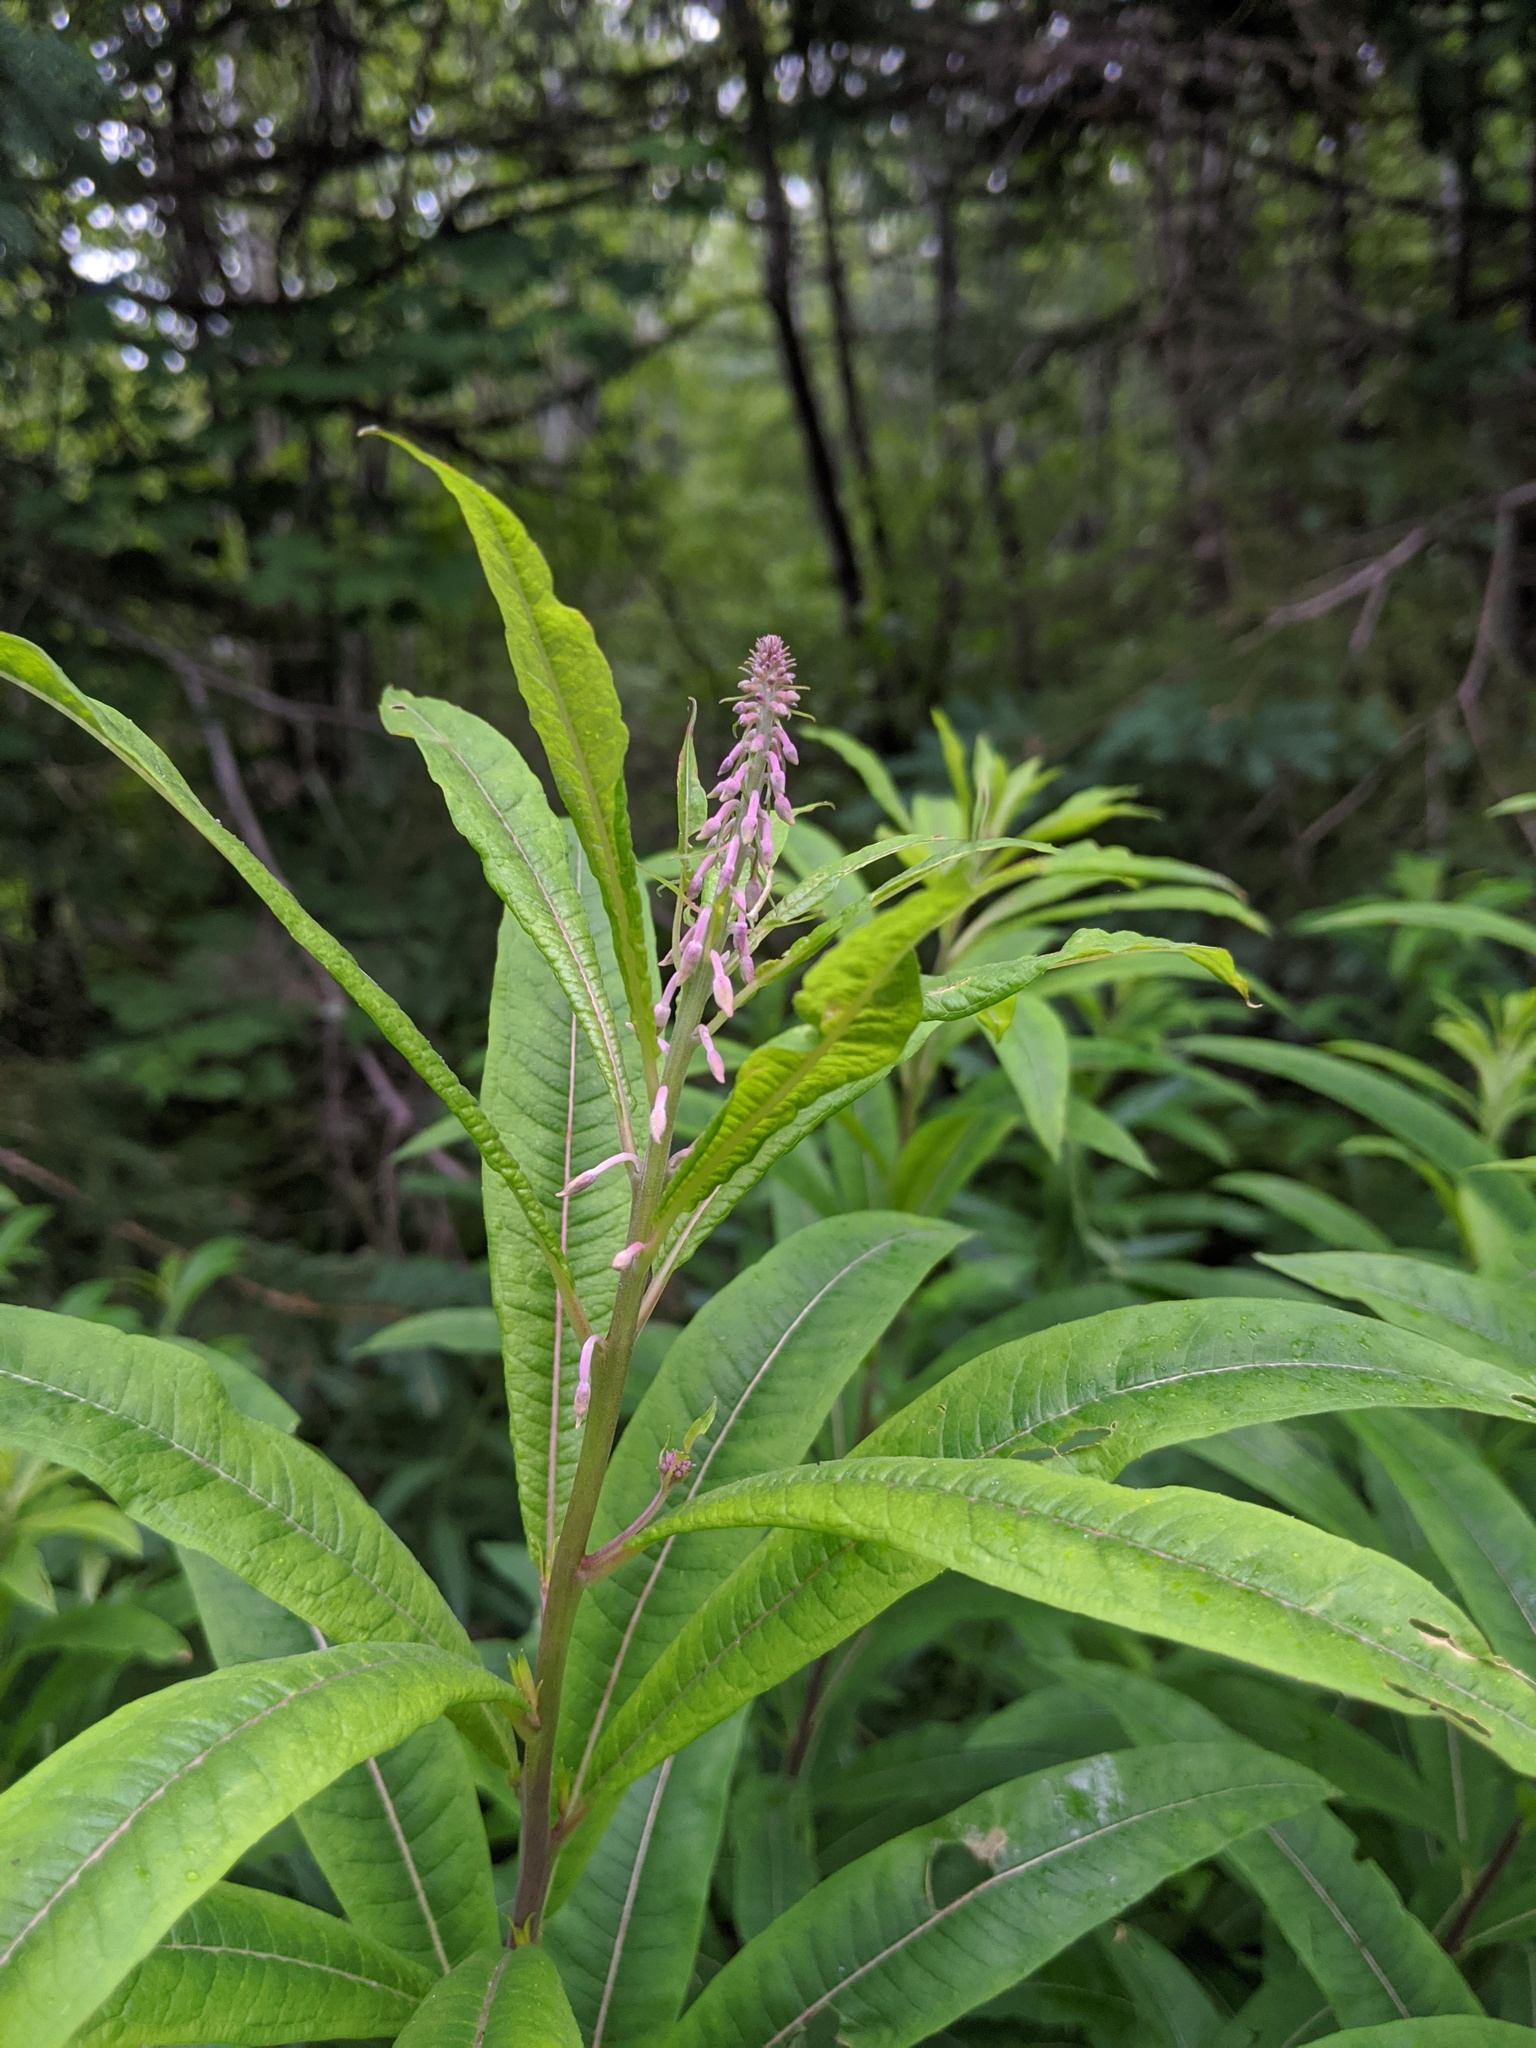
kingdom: Plantae
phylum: Tracheophyta
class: Magnoliopsida
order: Myrtales
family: Onagraceae
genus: Chamaenerion
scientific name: Chamaenerion angustifolium
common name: Fireweed
